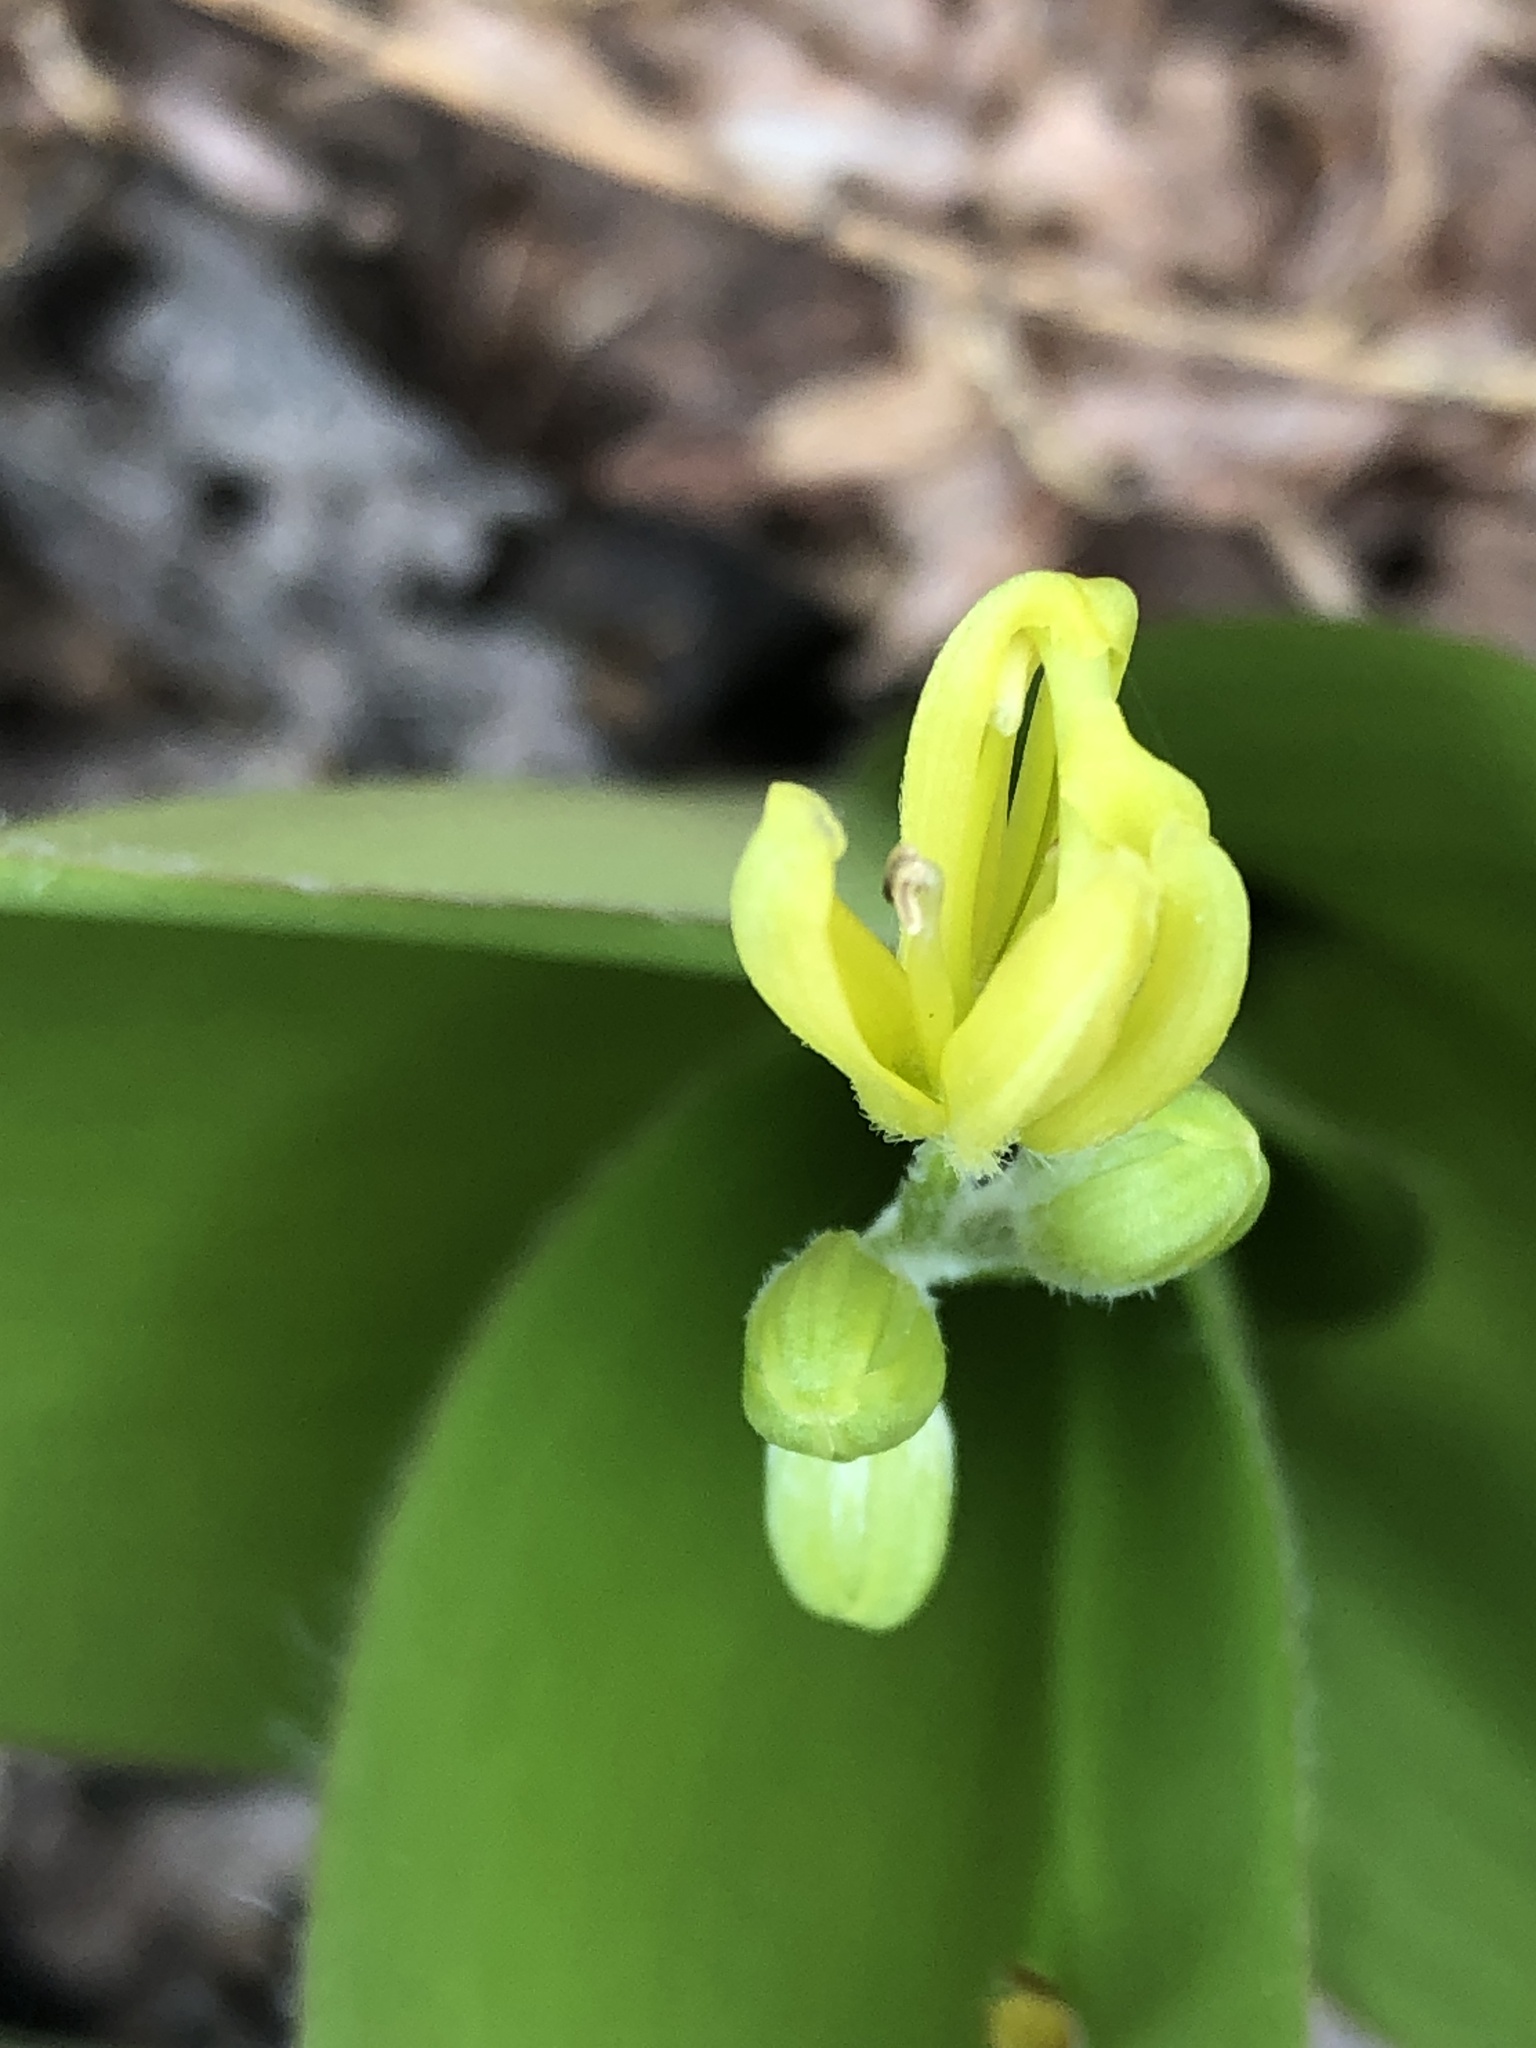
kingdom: Plantae
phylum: Tracheophyta
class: Liliopsida
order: Liliales
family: Liliaceae
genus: Clintonia
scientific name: Clintonia borealis
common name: Yellow clintonia
